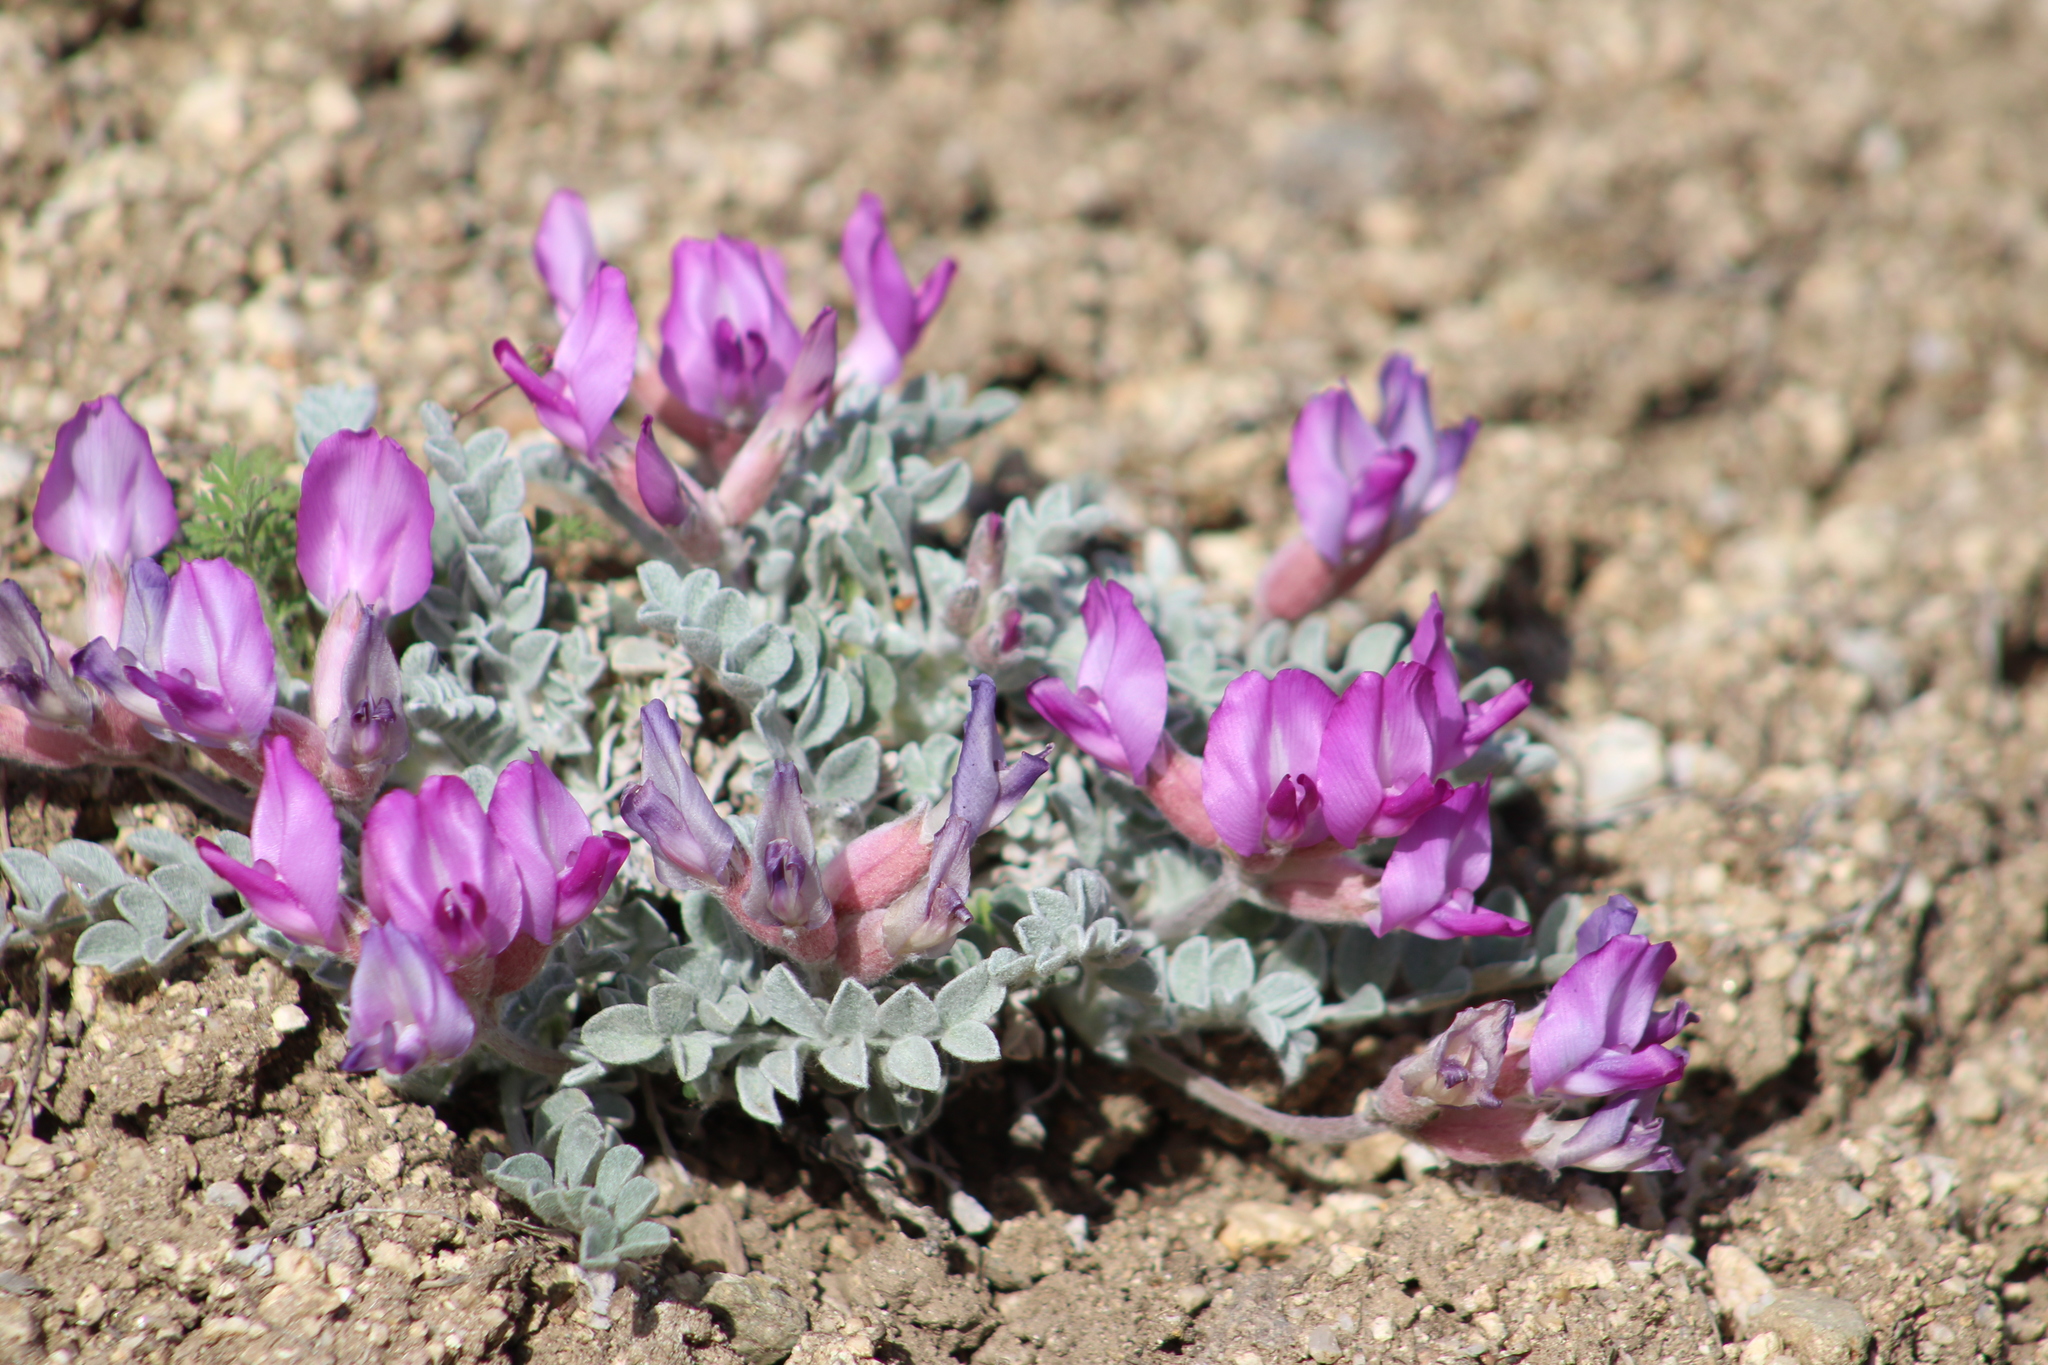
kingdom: Plantae
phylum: Tracheophyta
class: Magnoliopsida
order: Fabales
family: Fabaceae
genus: Astragalus
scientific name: Astragalus utahensis
